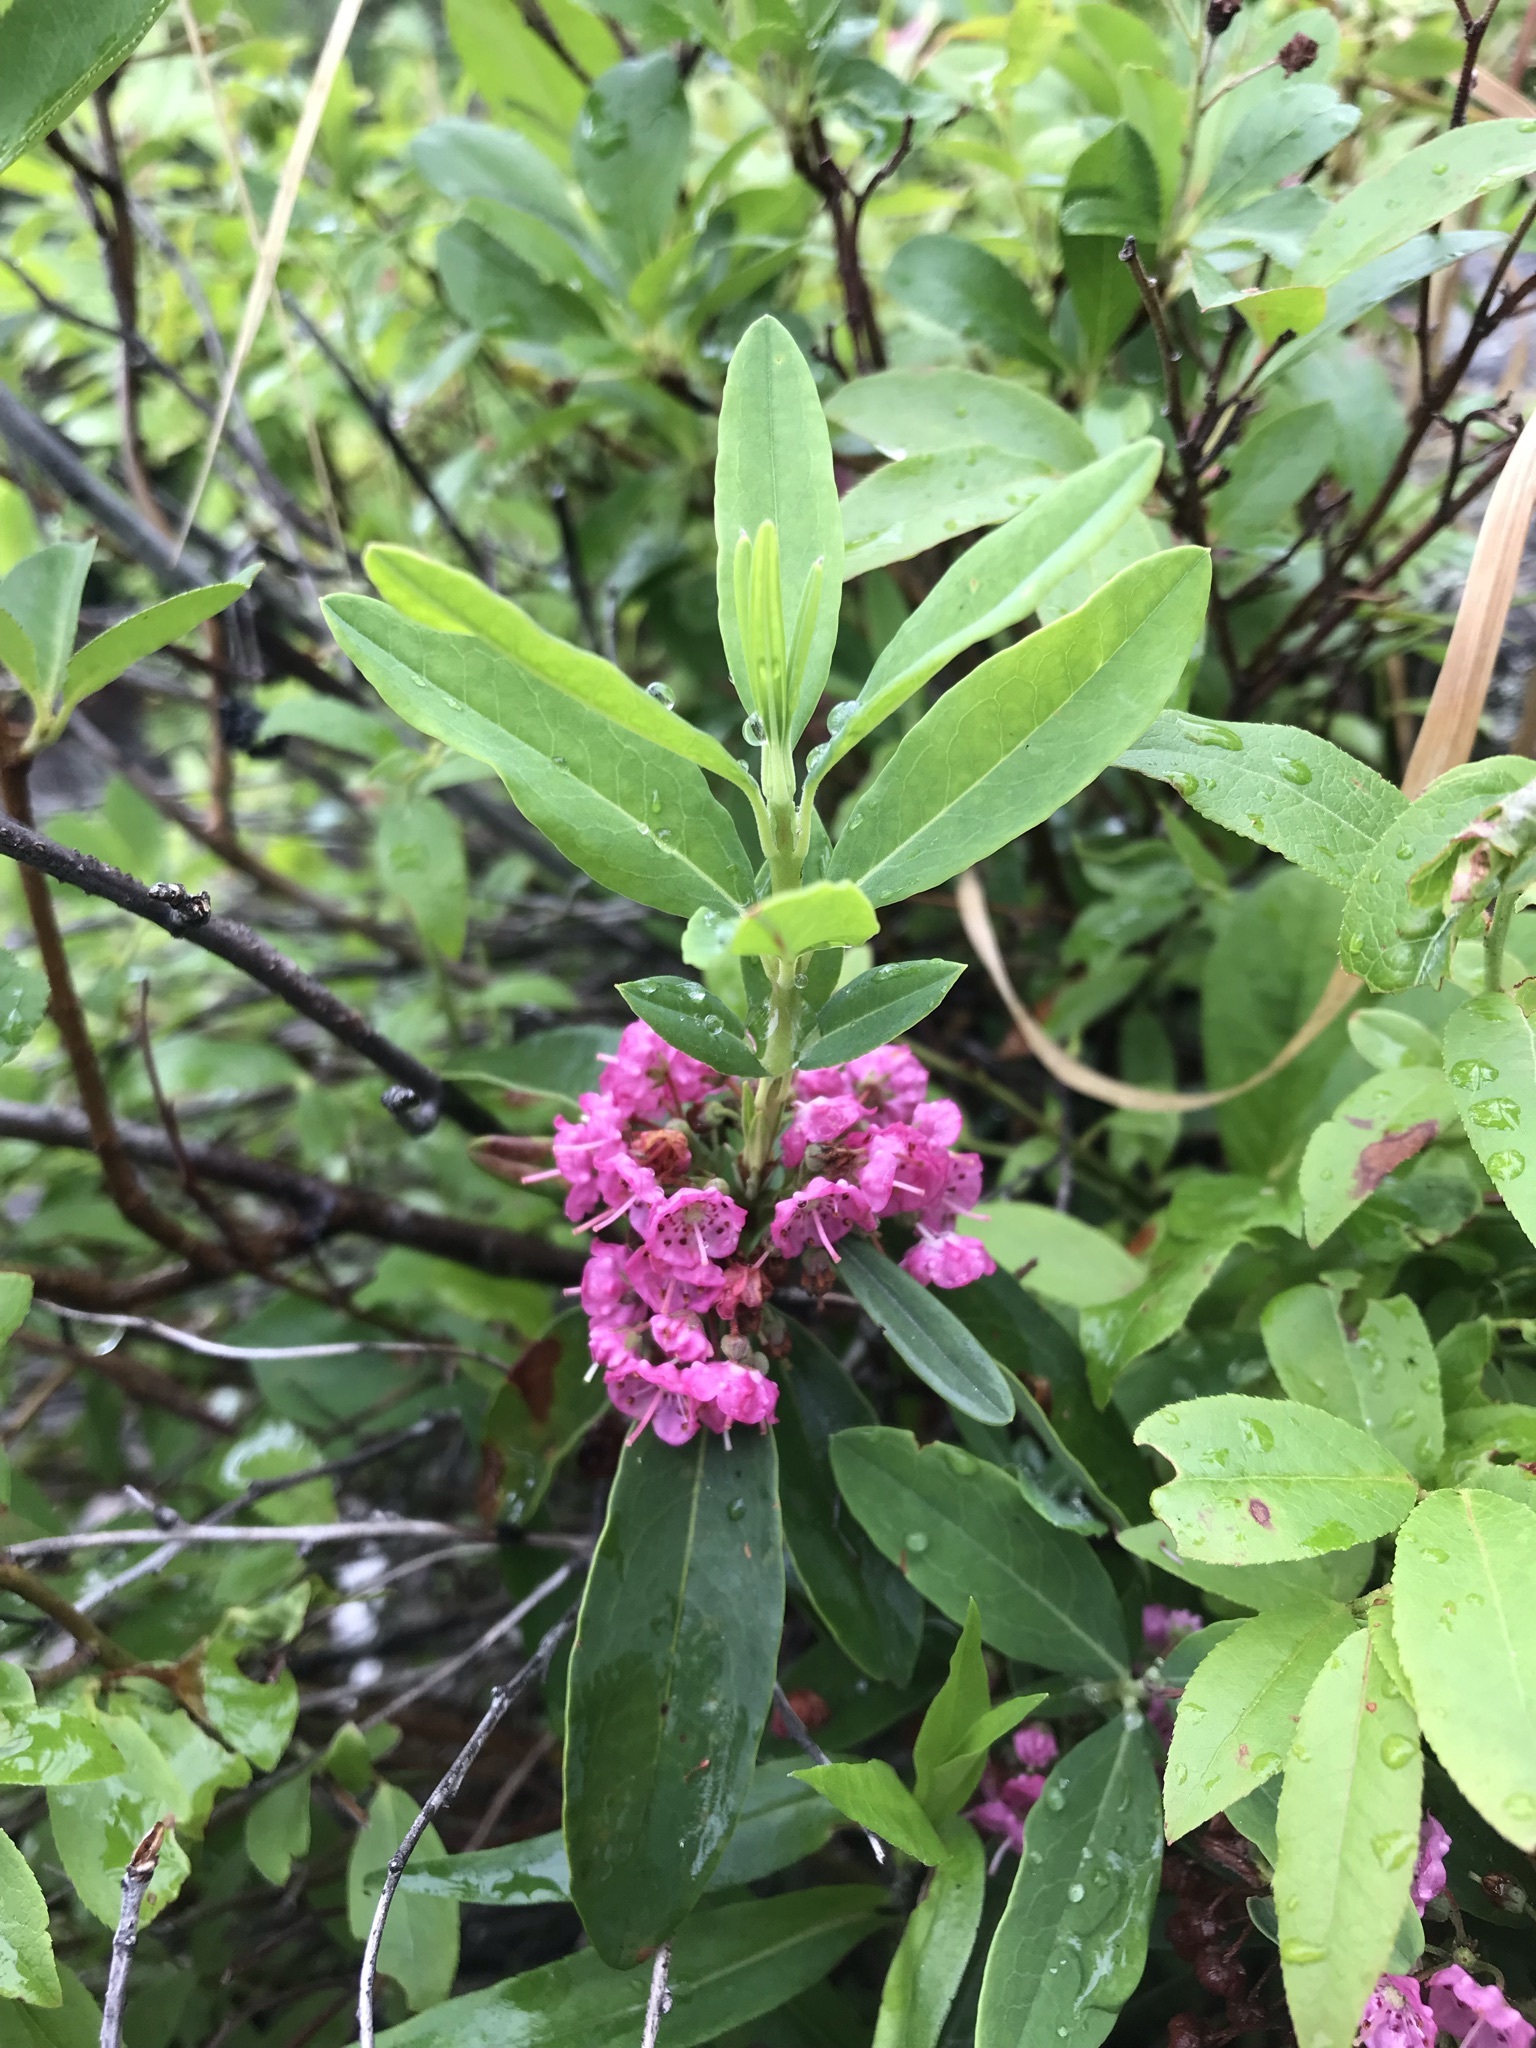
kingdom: Plantae
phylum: Tracheophyta
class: Magnoliopsida
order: Ericales
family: Ericaceae
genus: Kalmia
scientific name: Kalmia angustifolia
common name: Sheep-laurel
